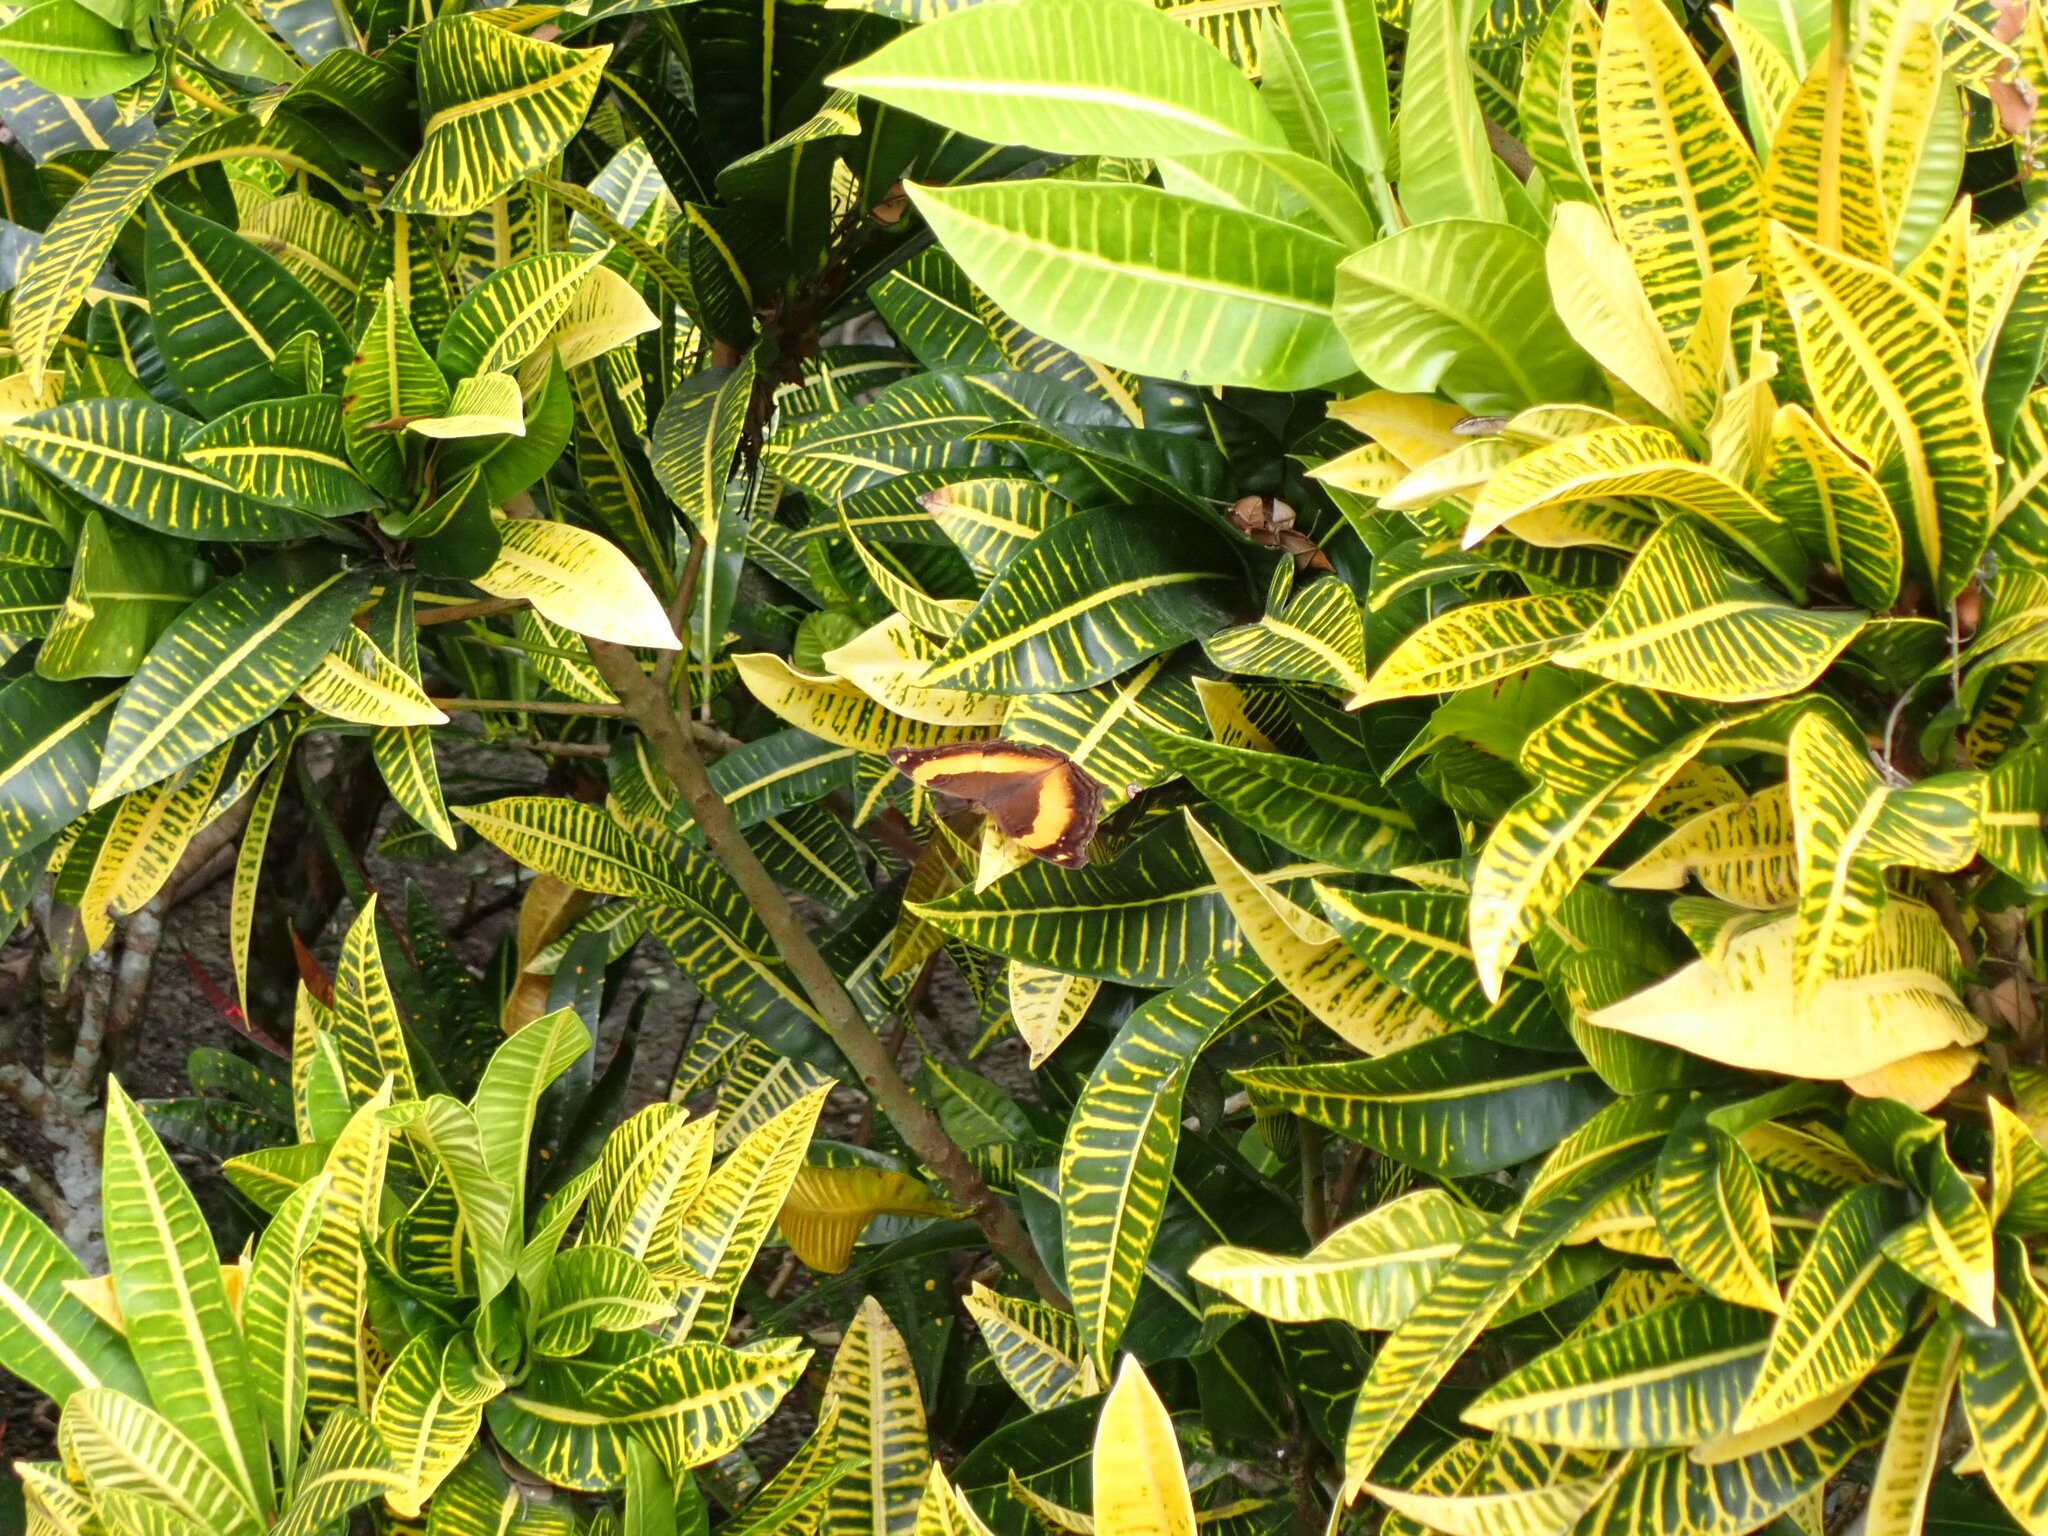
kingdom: Animalia
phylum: Arthropoda
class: Insecta
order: Lepidoptera
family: Nymphalidae
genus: Yoma
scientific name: Yoma sabina
